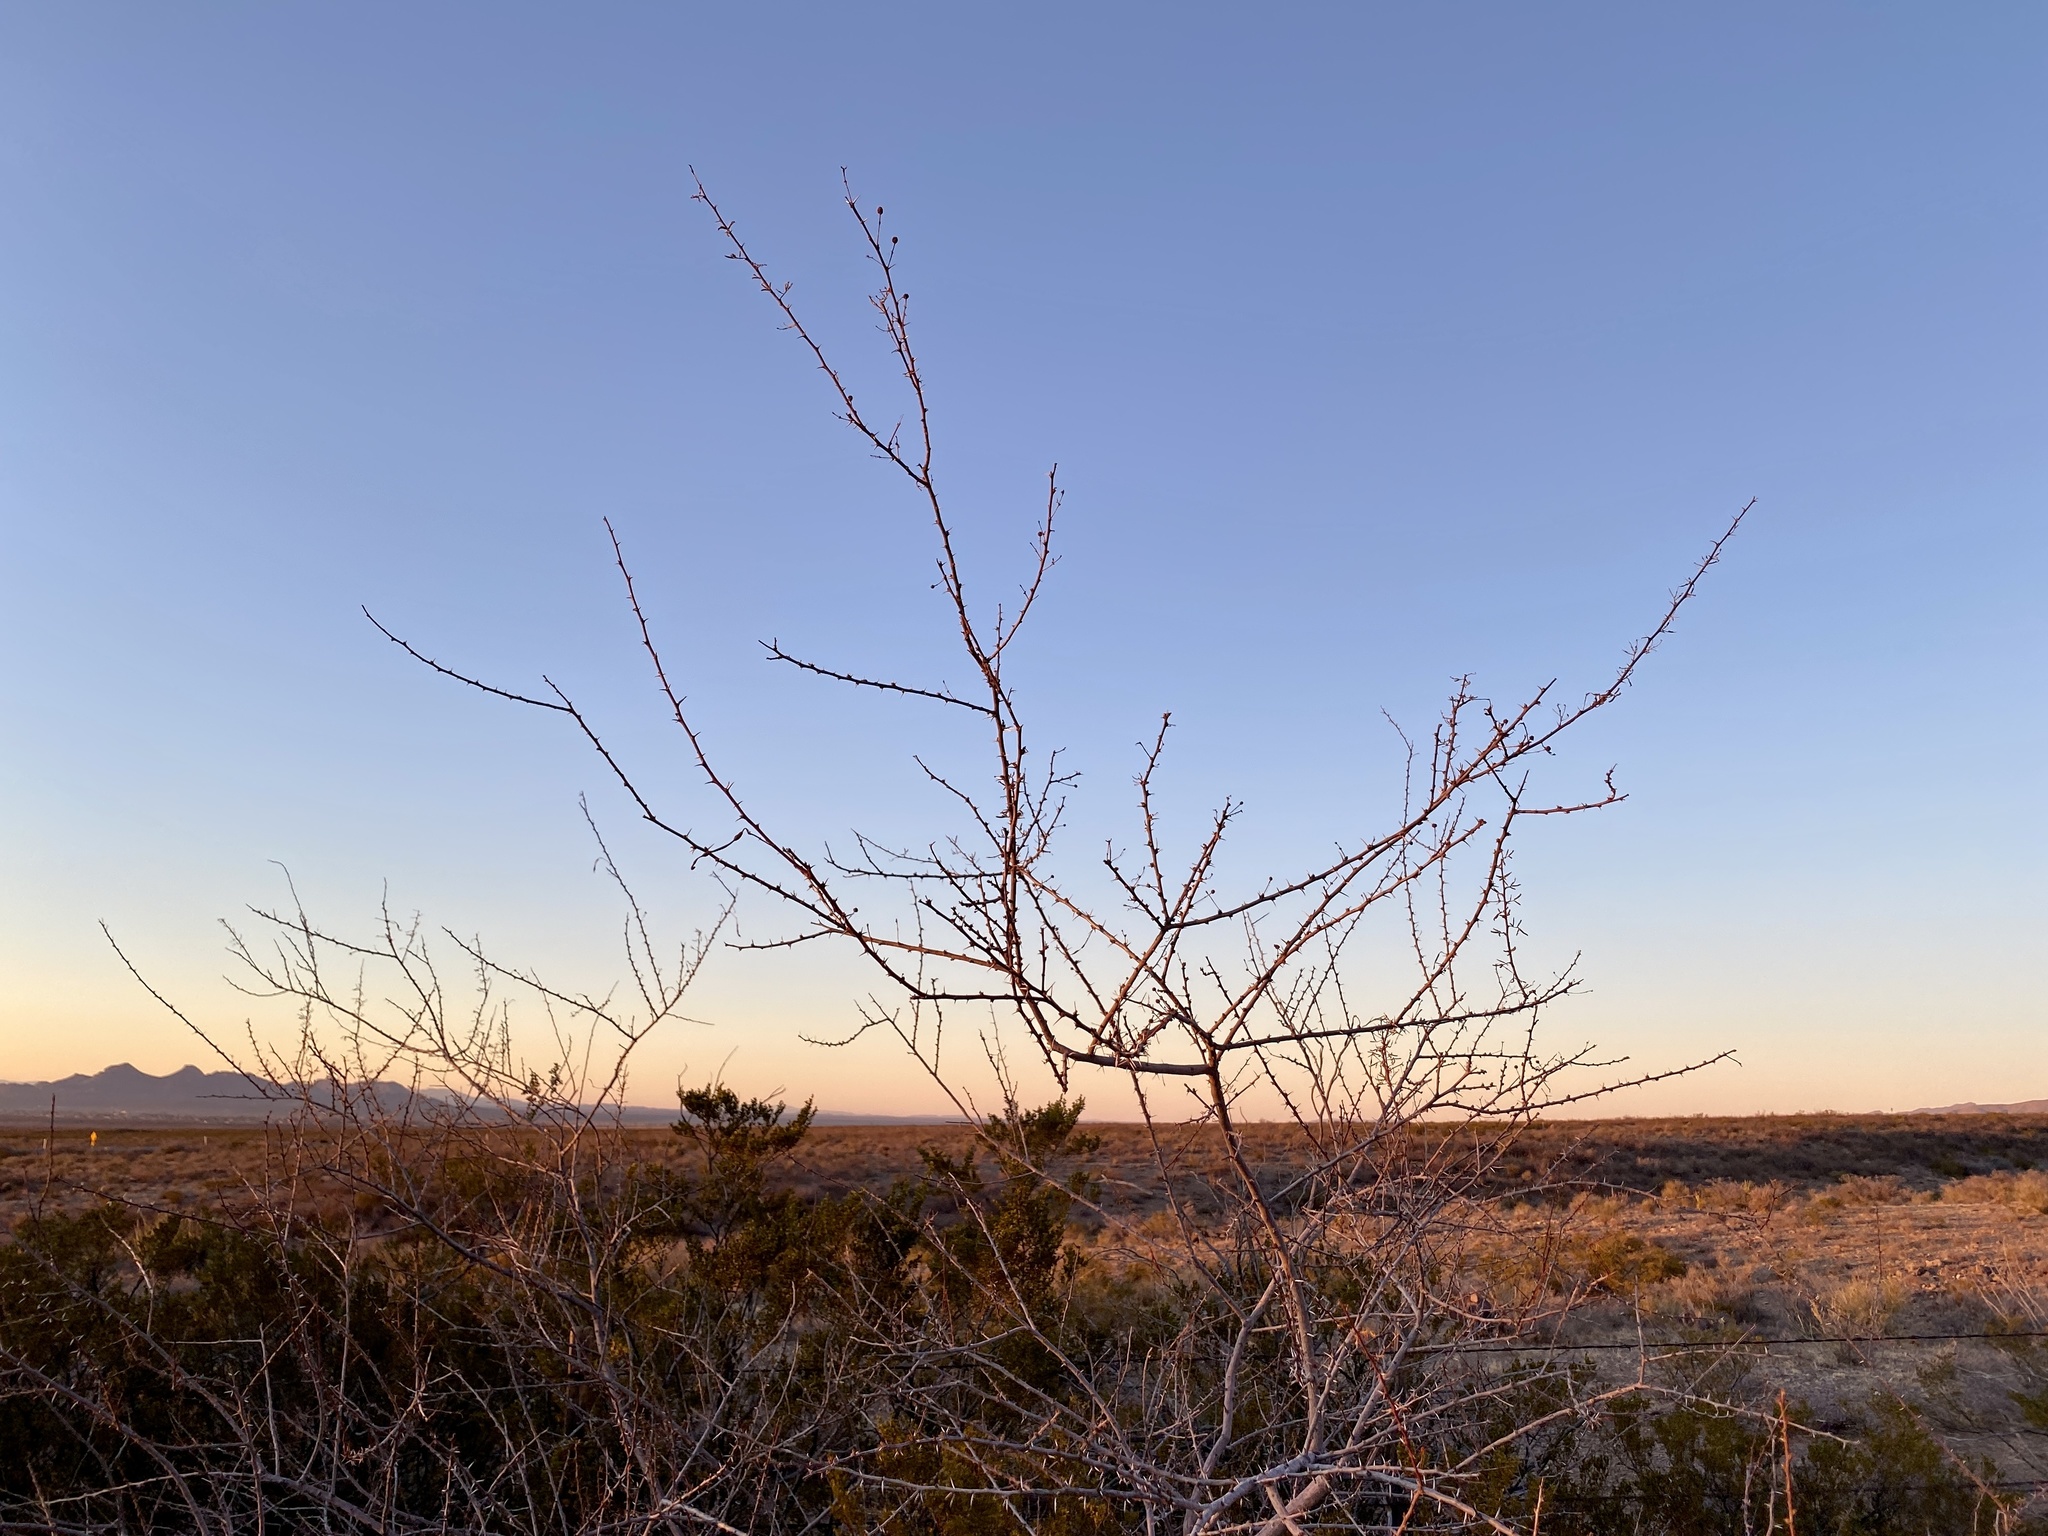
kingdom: Plantae
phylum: Tracheophyta
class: Magnoliopsida
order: Fabales
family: Fabaceae
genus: Vachellia
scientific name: Vachellia constricta
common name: Mescat acacia
